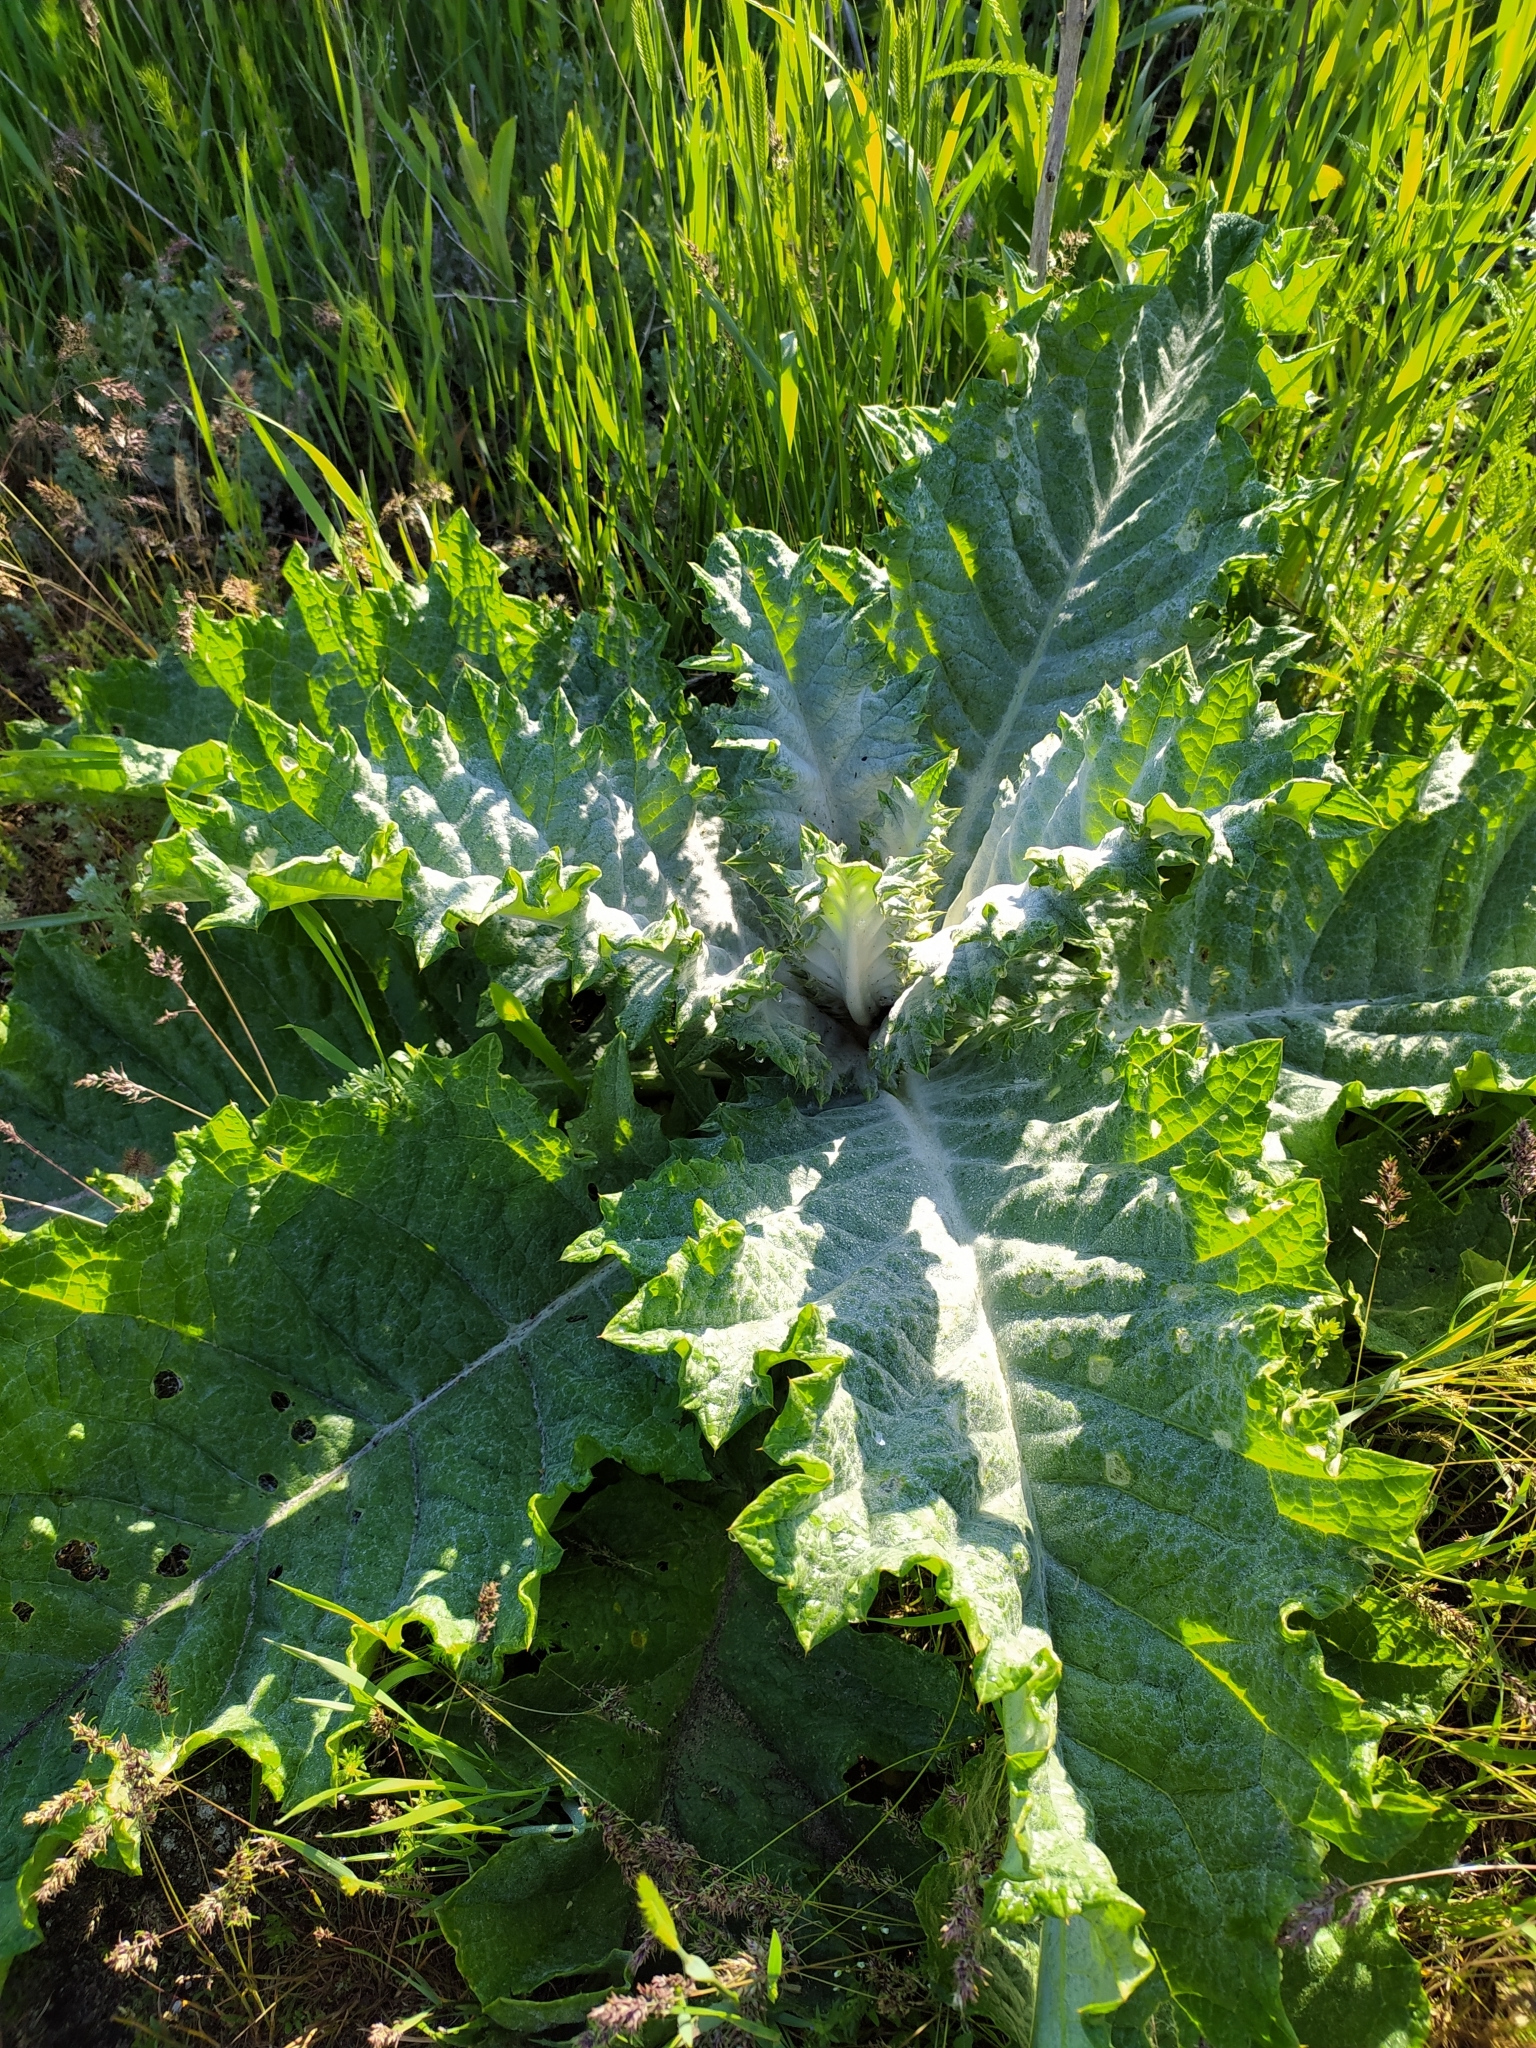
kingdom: Plantae
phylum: Tracheophyta
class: Magnoliopsida
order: Asterales
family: Asteraceae
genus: Onopordum
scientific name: Onopordum acanthium
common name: Scotch thistle
